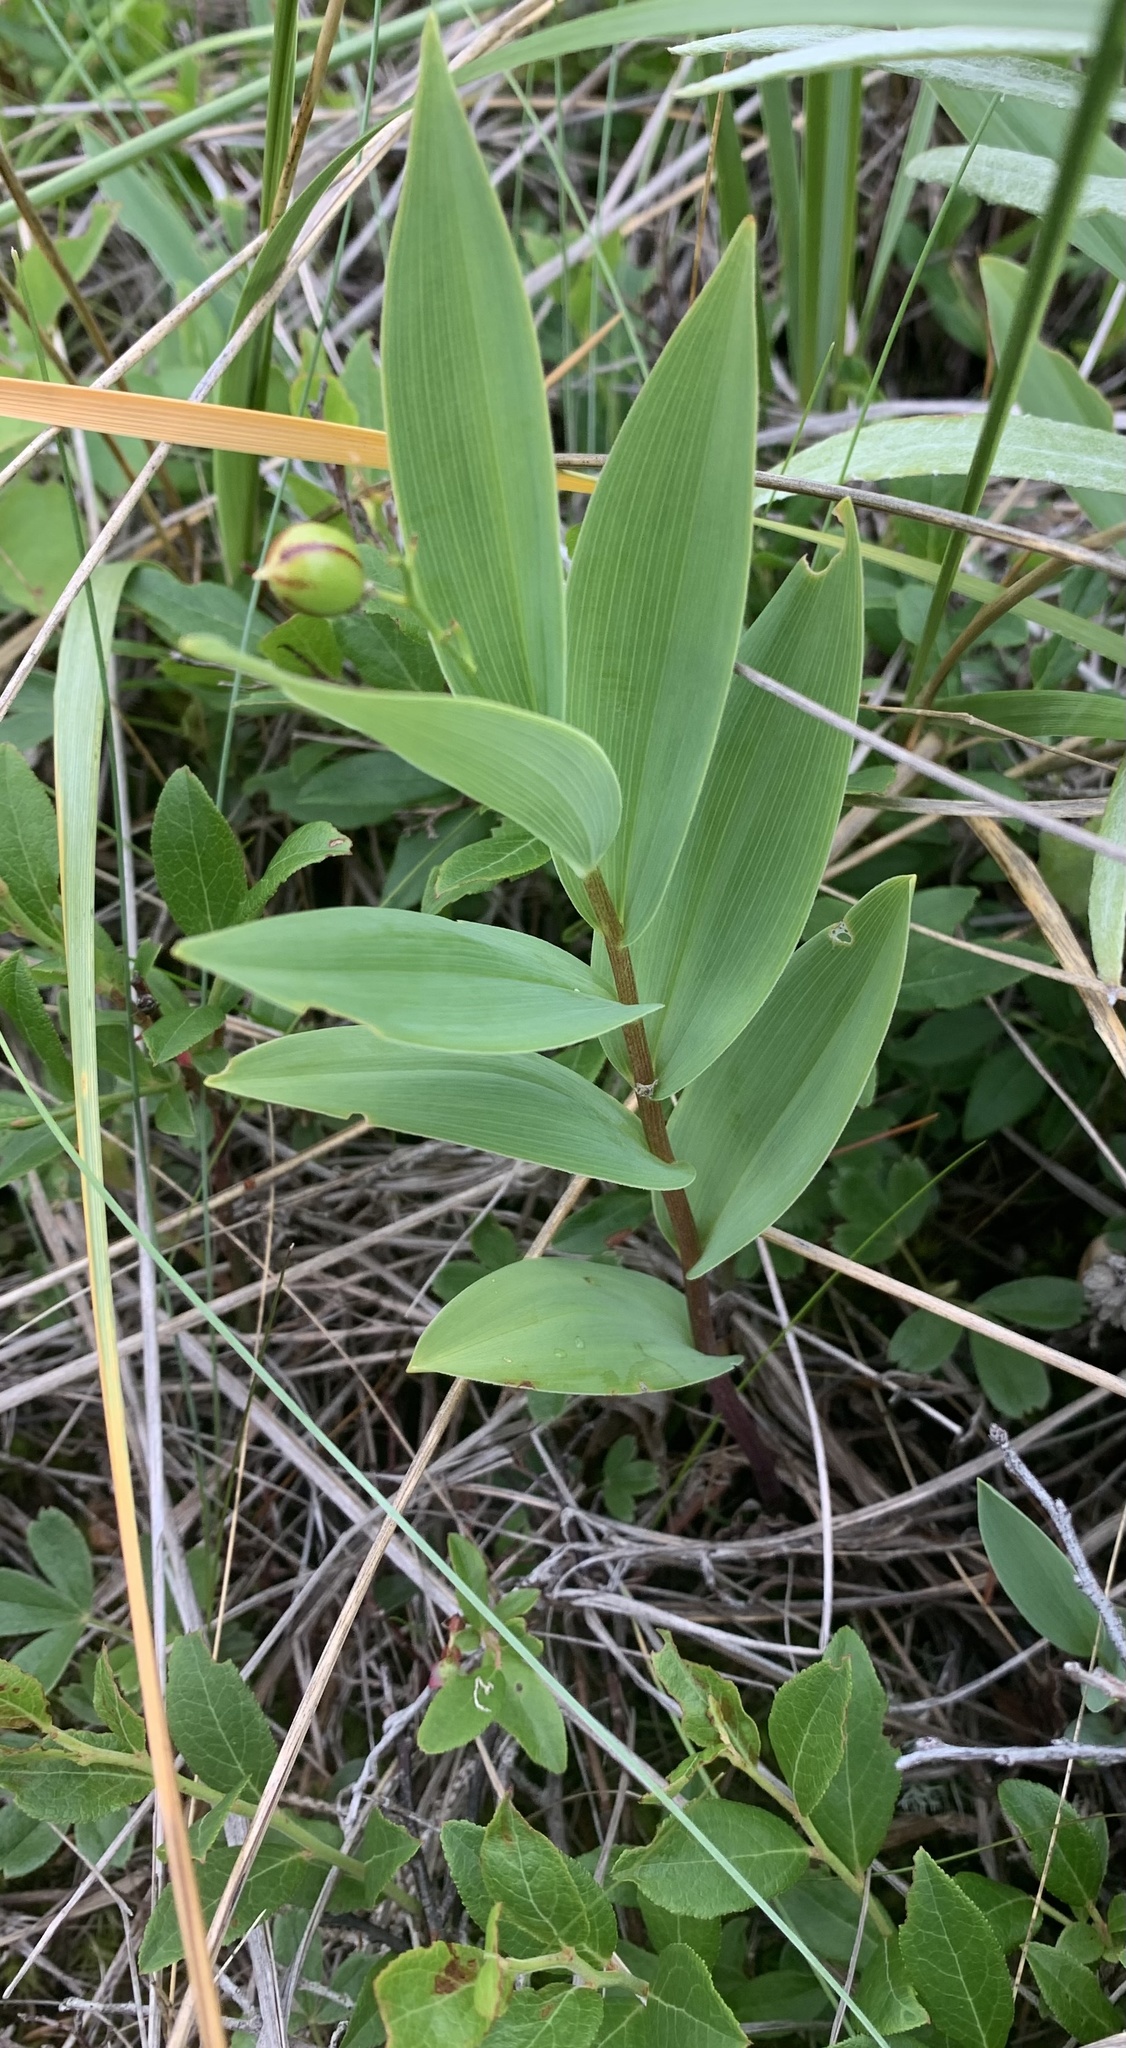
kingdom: Plantae
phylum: Tracheophyta
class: Liliopsida
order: Asparagales
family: Asparagaceae
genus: Maianthemum
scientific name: Maianthemum stellatum
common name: Little false solomon's seal
